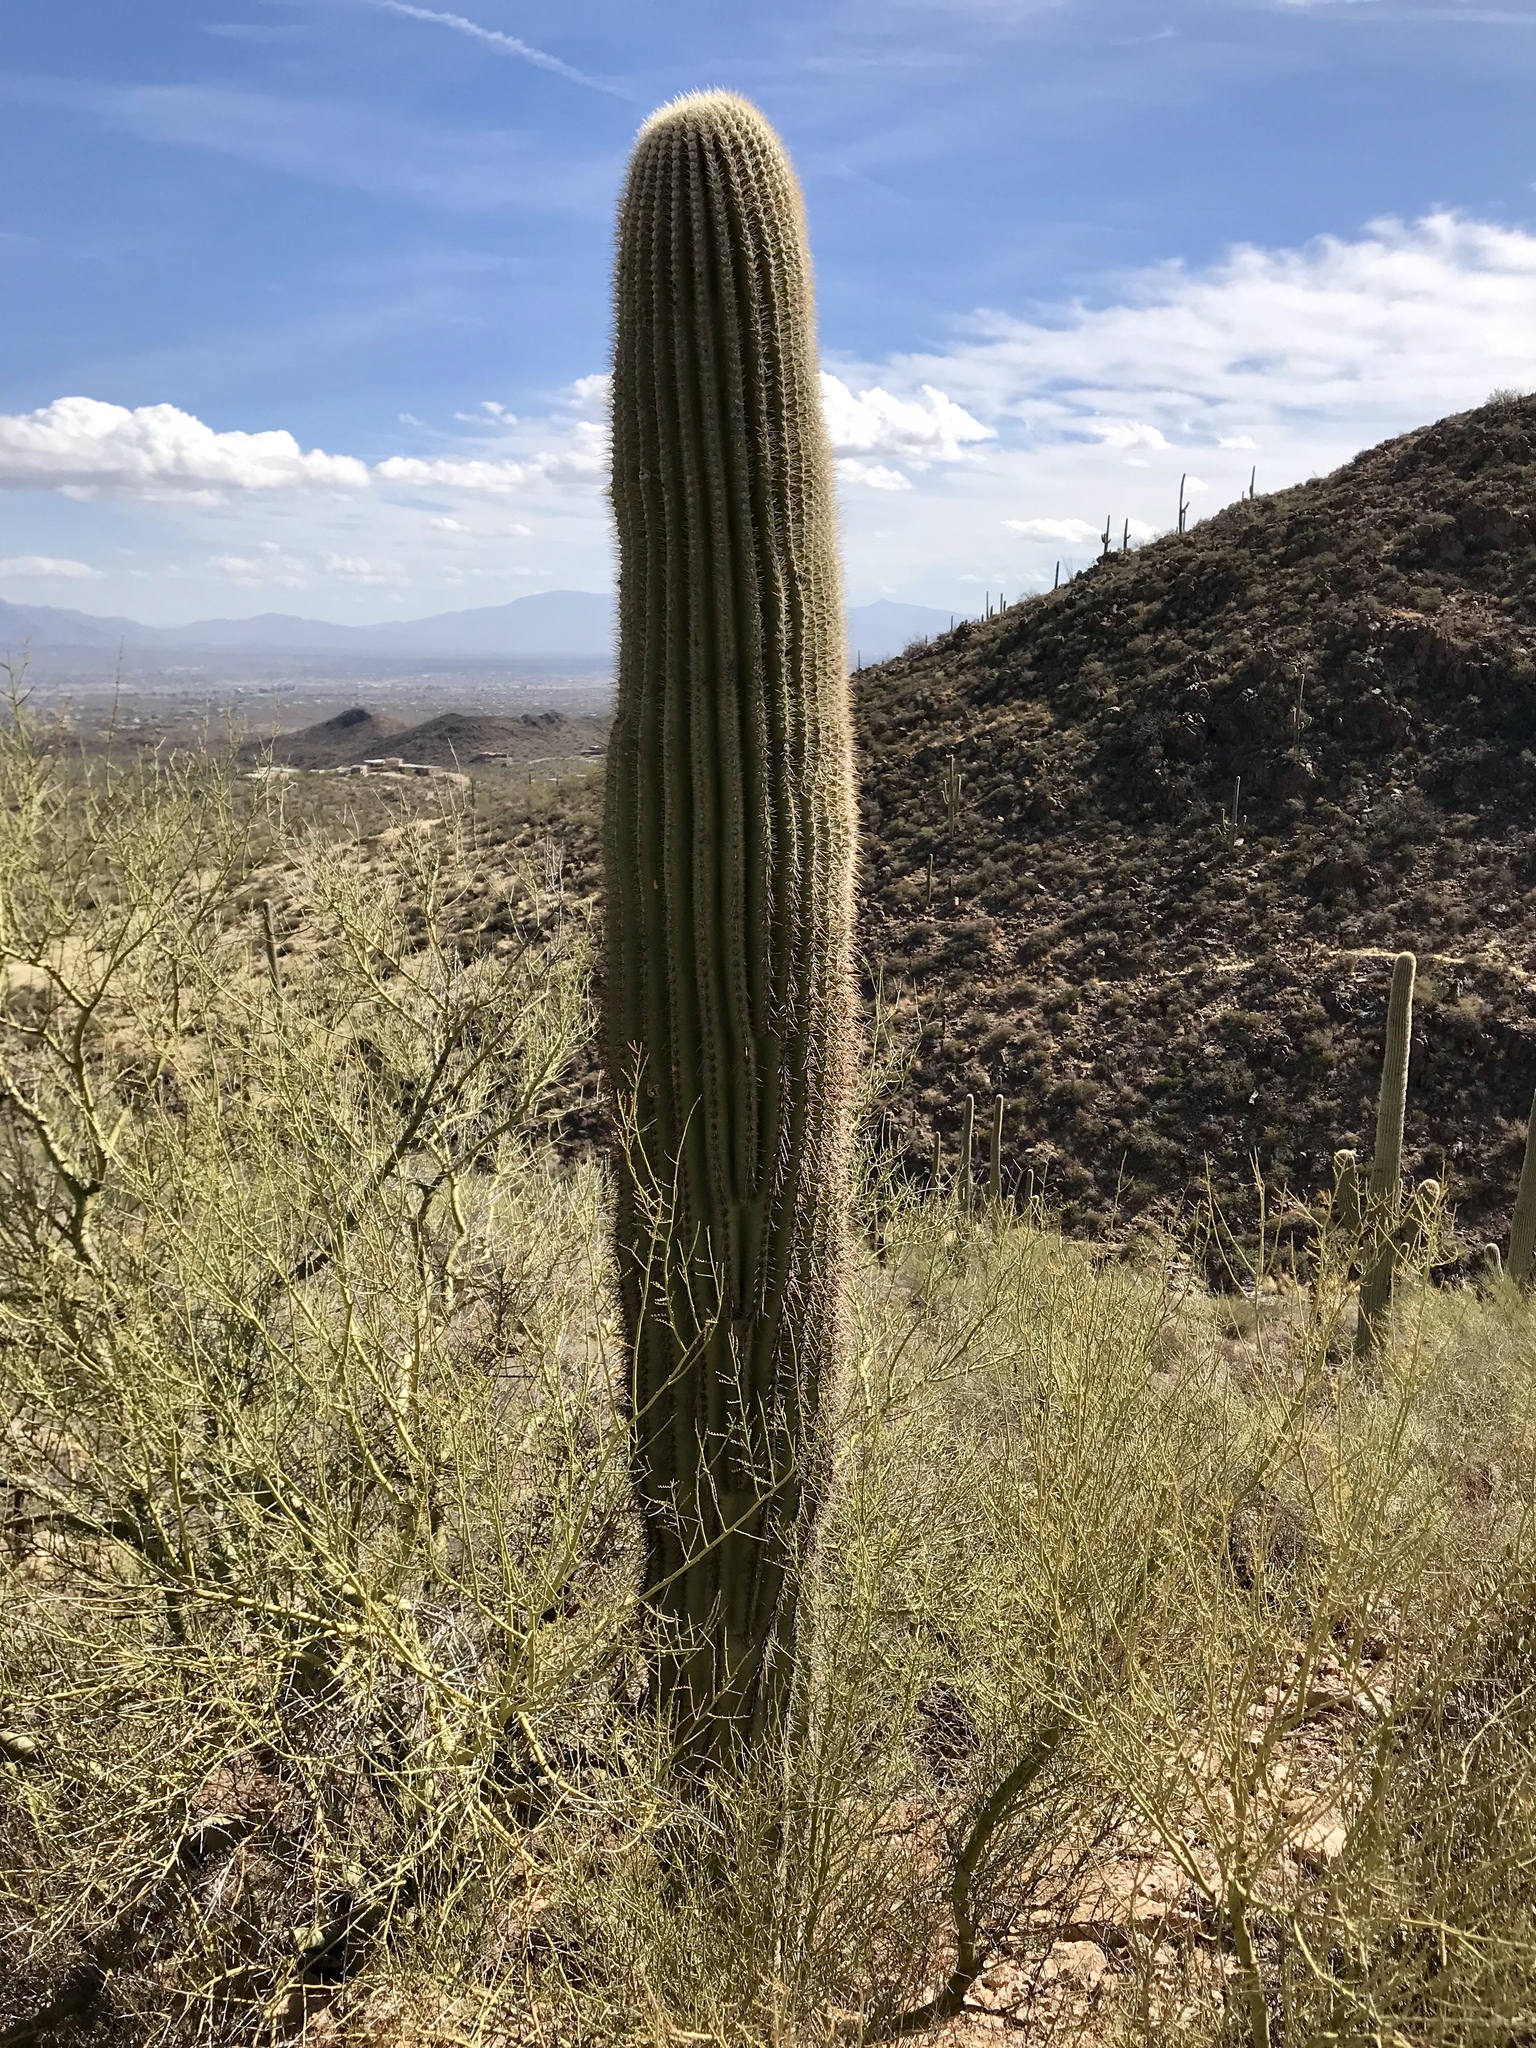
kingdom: Plantae
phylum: Tracheophyta
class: Magnoliopsida
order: Caryophyllales
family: Cactaceae
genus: Carnegiea
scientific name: Carnegiea gigantea
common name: Saguaro
